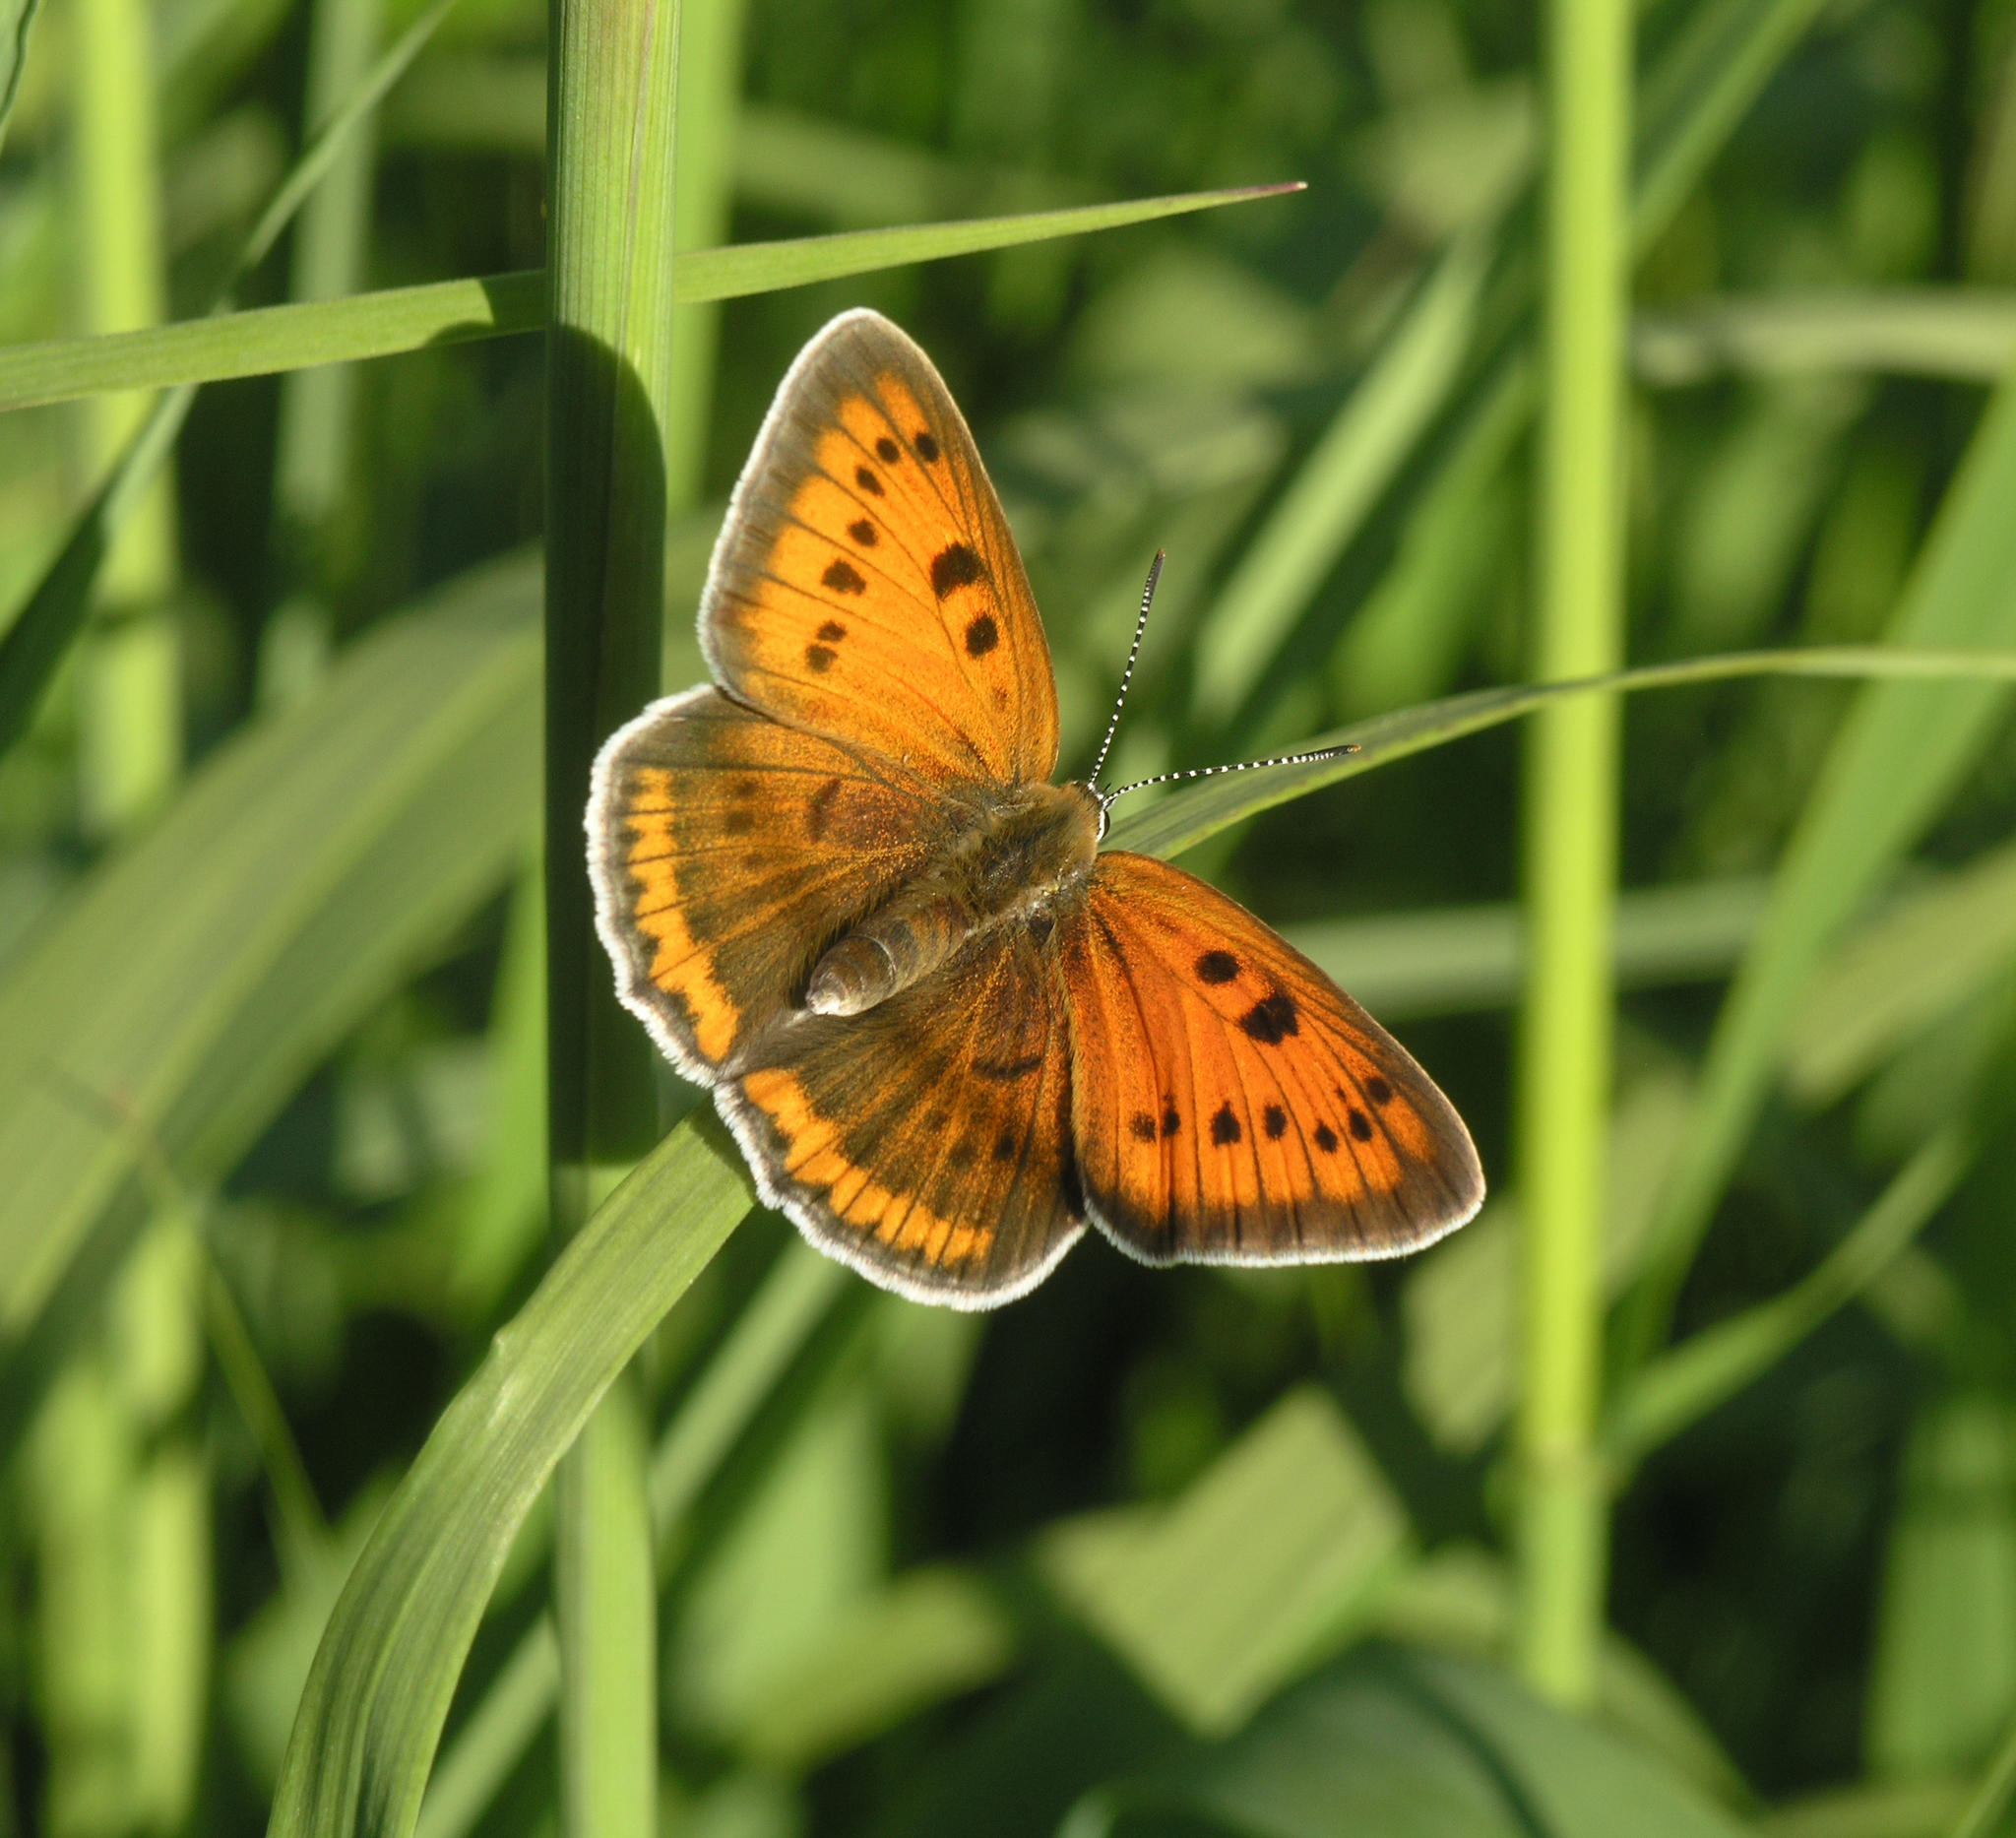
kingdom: Animalia
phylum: Arthropoda
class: Insecta
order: Lepidoptera
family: Lycaenidae
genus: Lycaena
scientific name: Lycaena dispar
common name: Large copper
